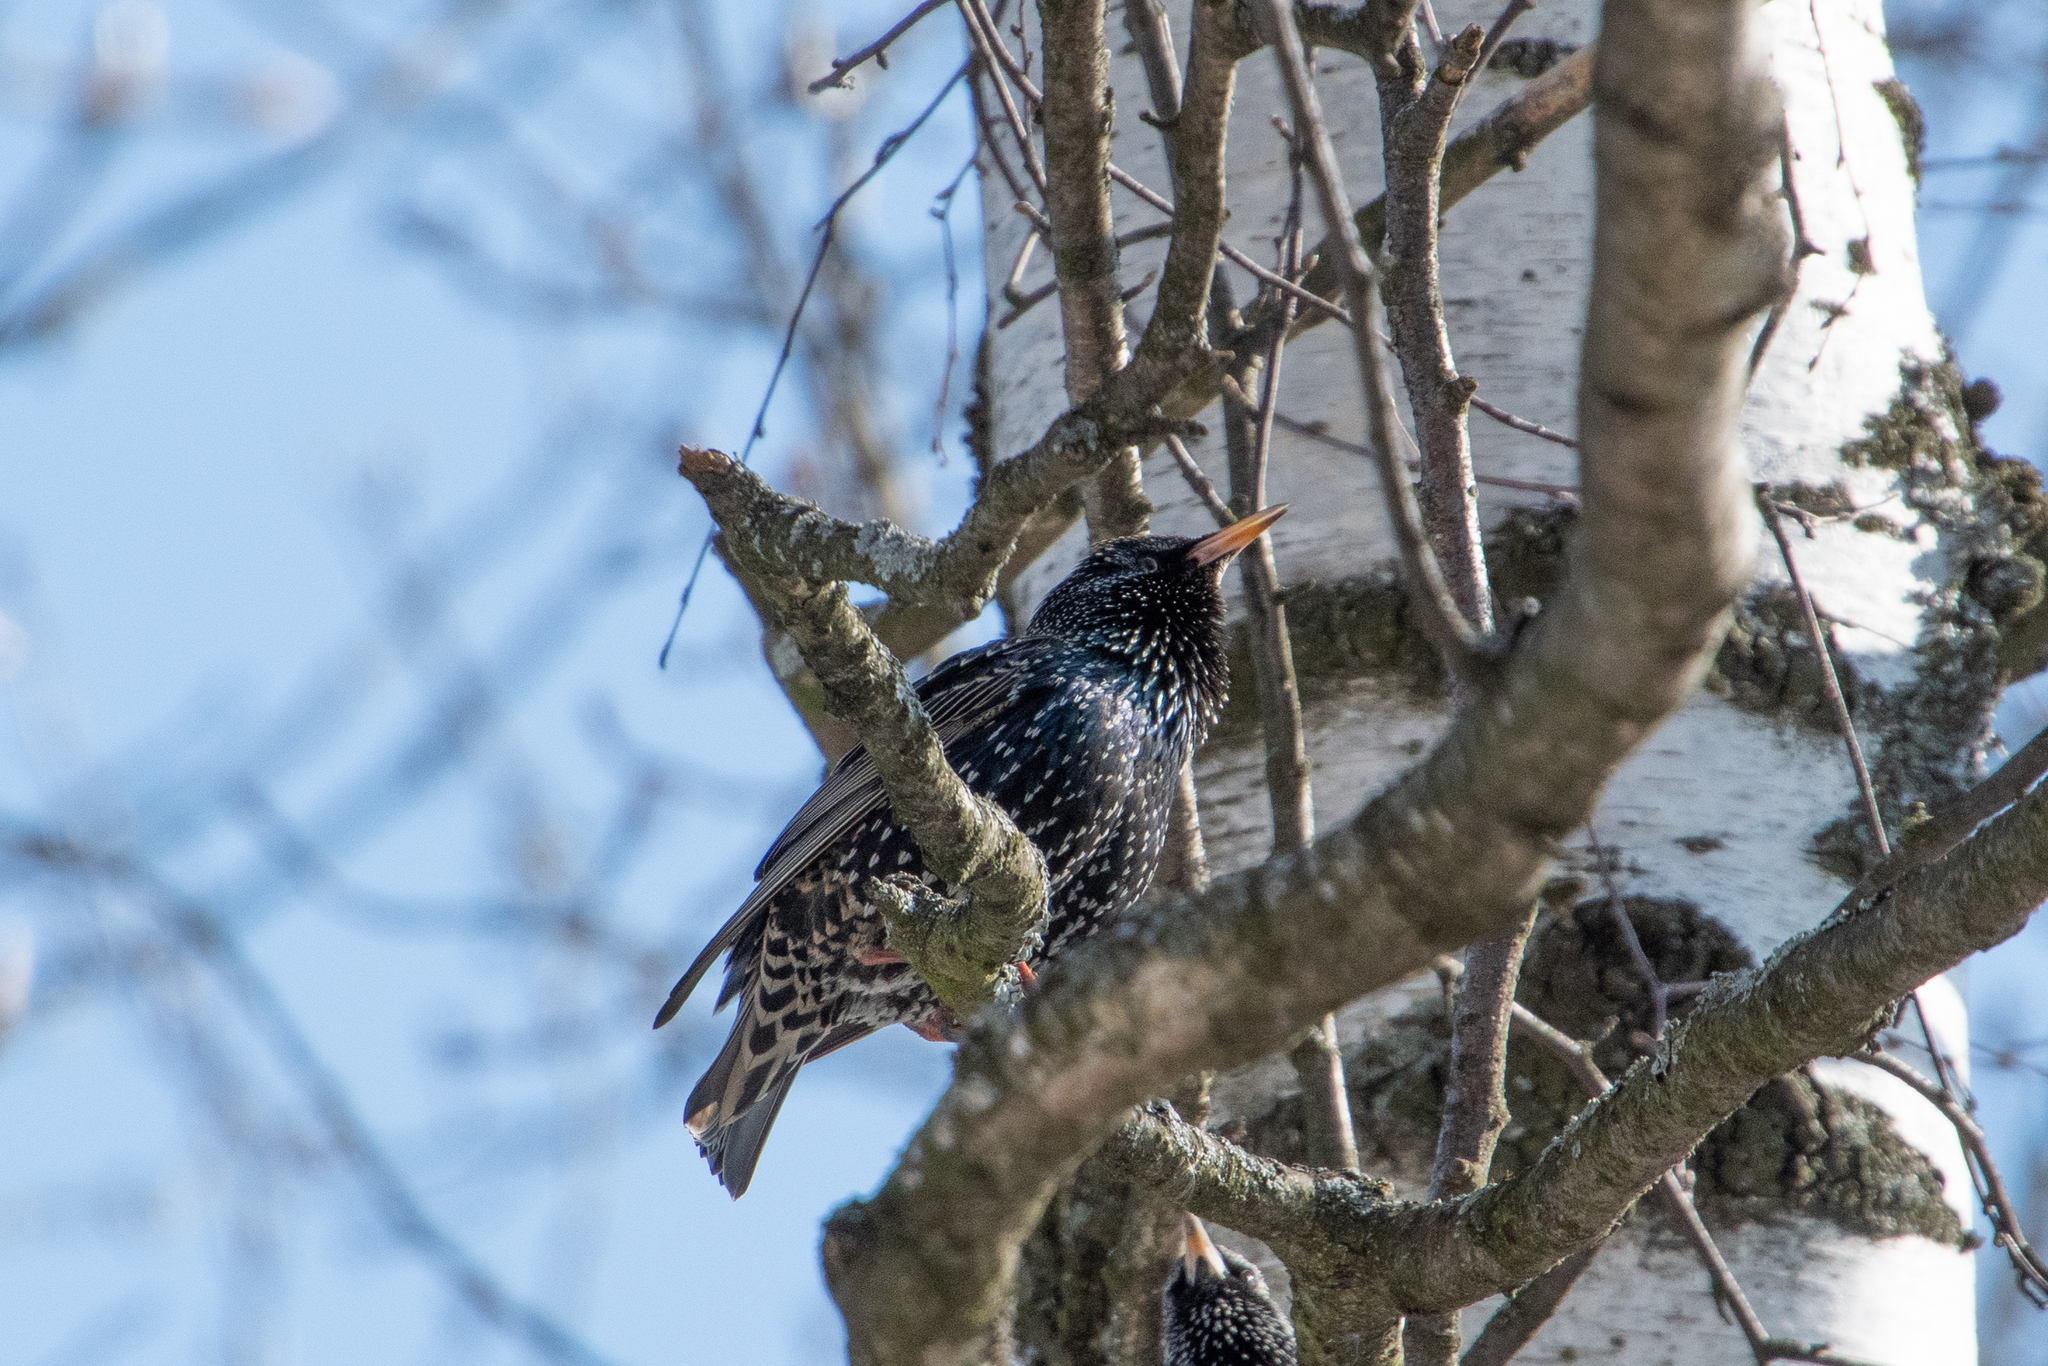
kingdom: Animalia
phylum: Chordata
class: Aves
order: Passeriformes
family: Sturnidae
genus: Sturnus
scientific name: Sturnus vulgaris
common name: Common starling
